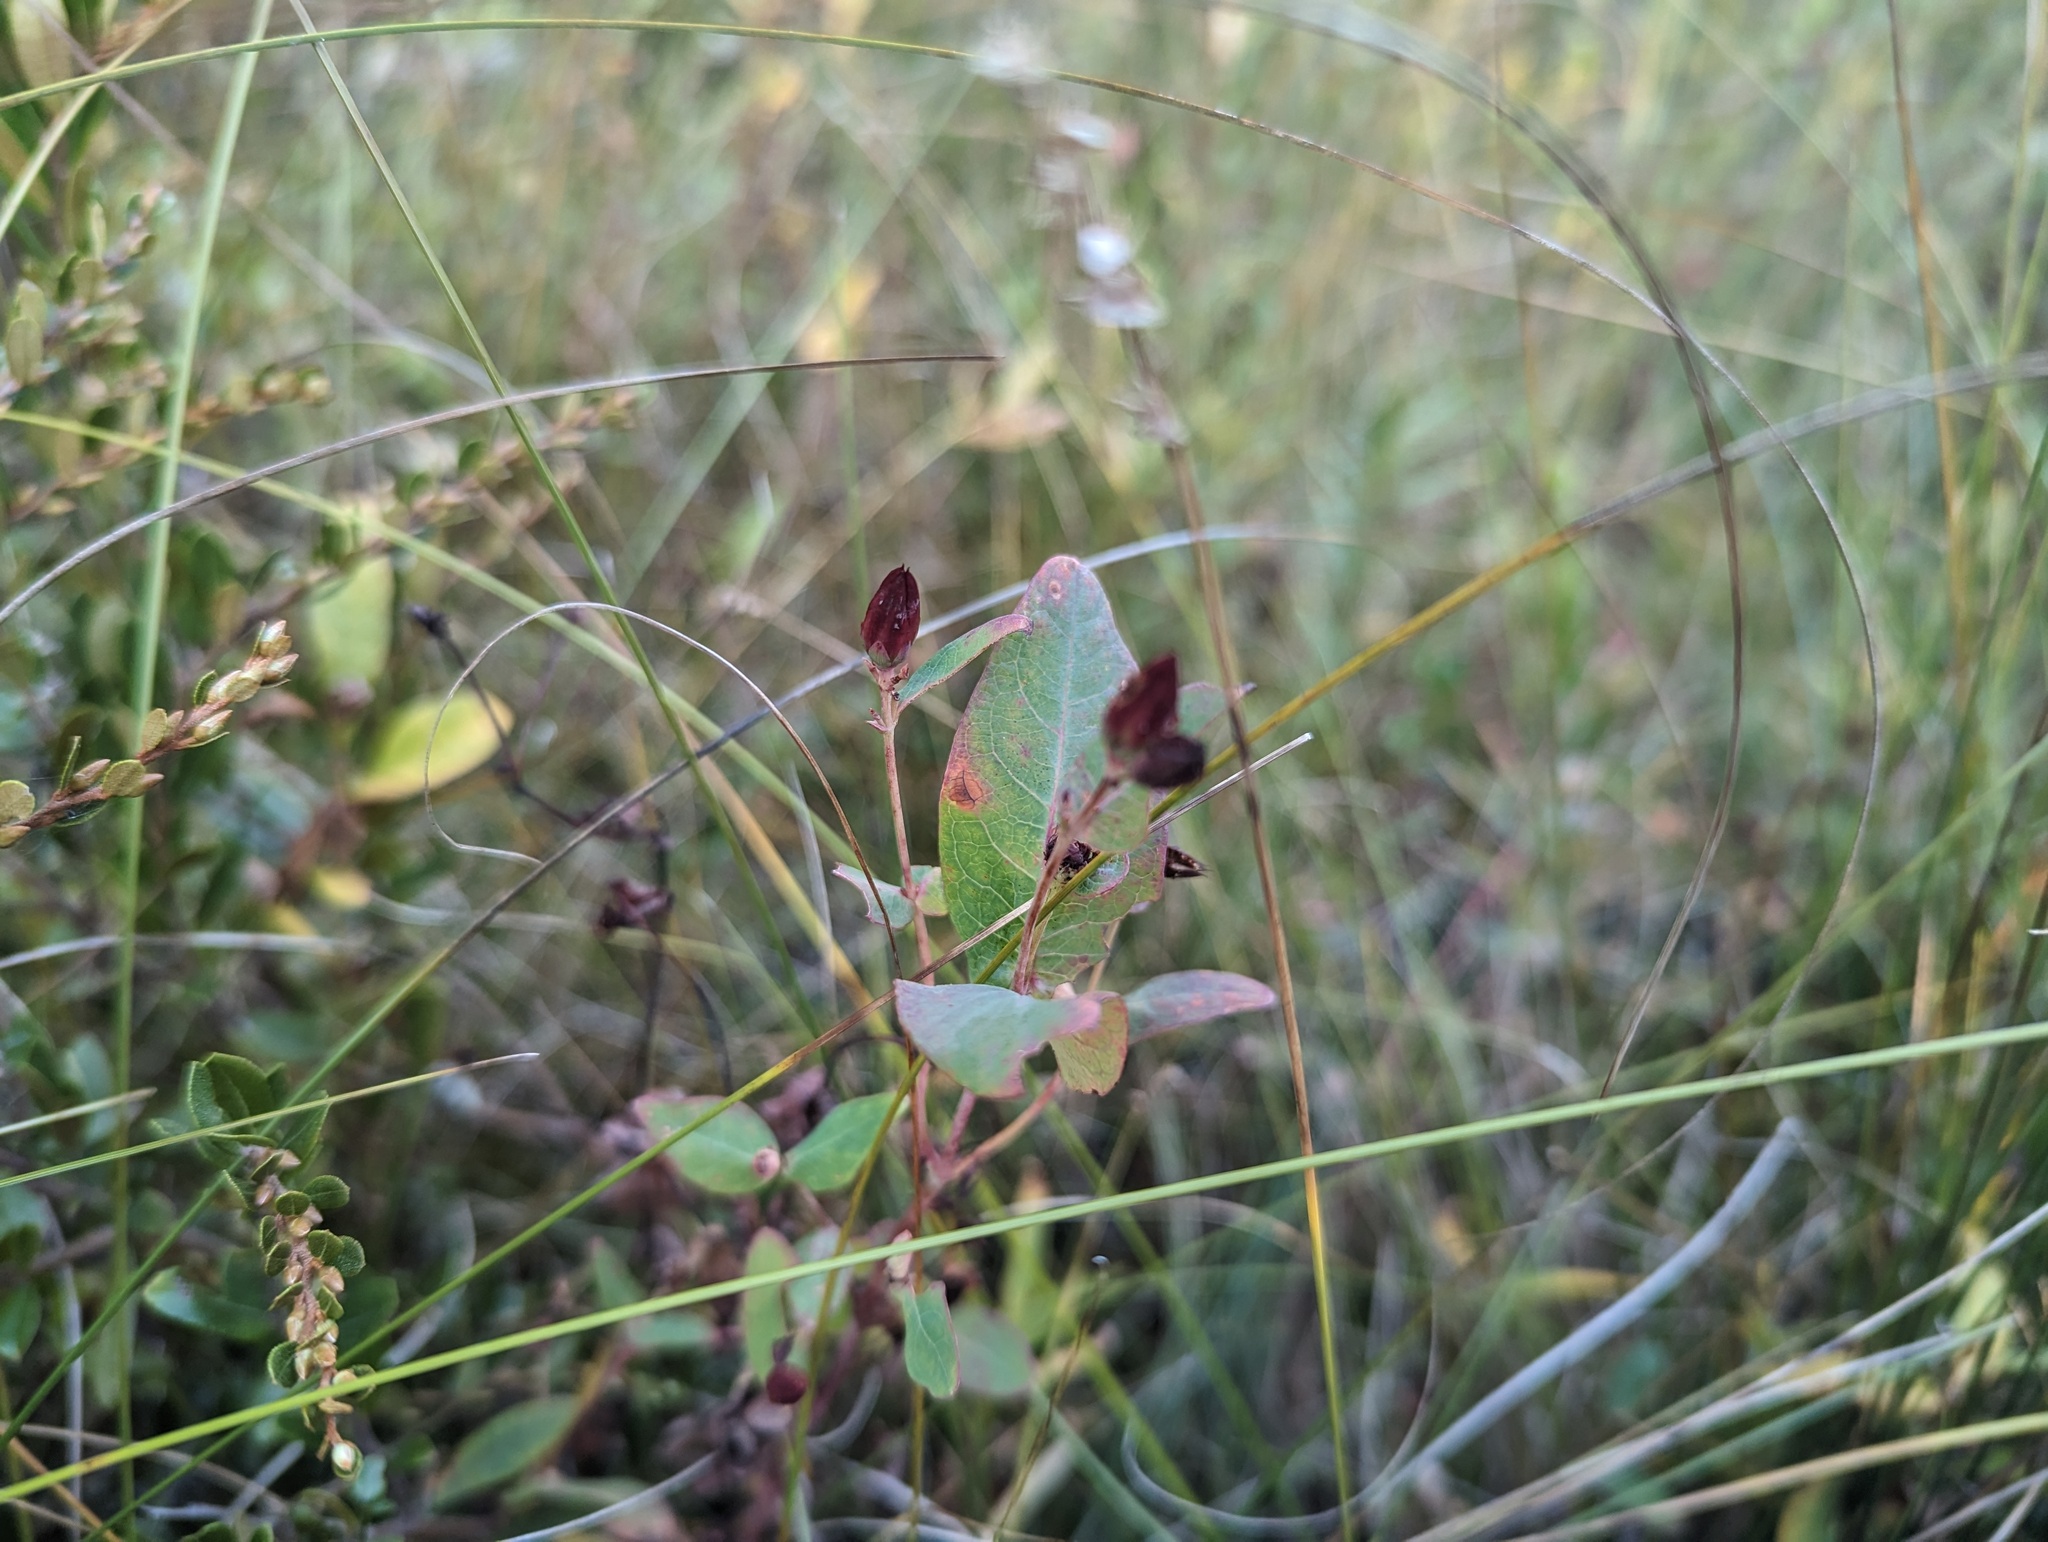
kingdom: Plantae
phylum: Tracheophyta
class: Magnoliopsida
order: Malpighiales
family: Hypericaceae
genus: Triadenum
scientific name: Triadenum fraseri
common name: Fraser's marsh st. johnswort
